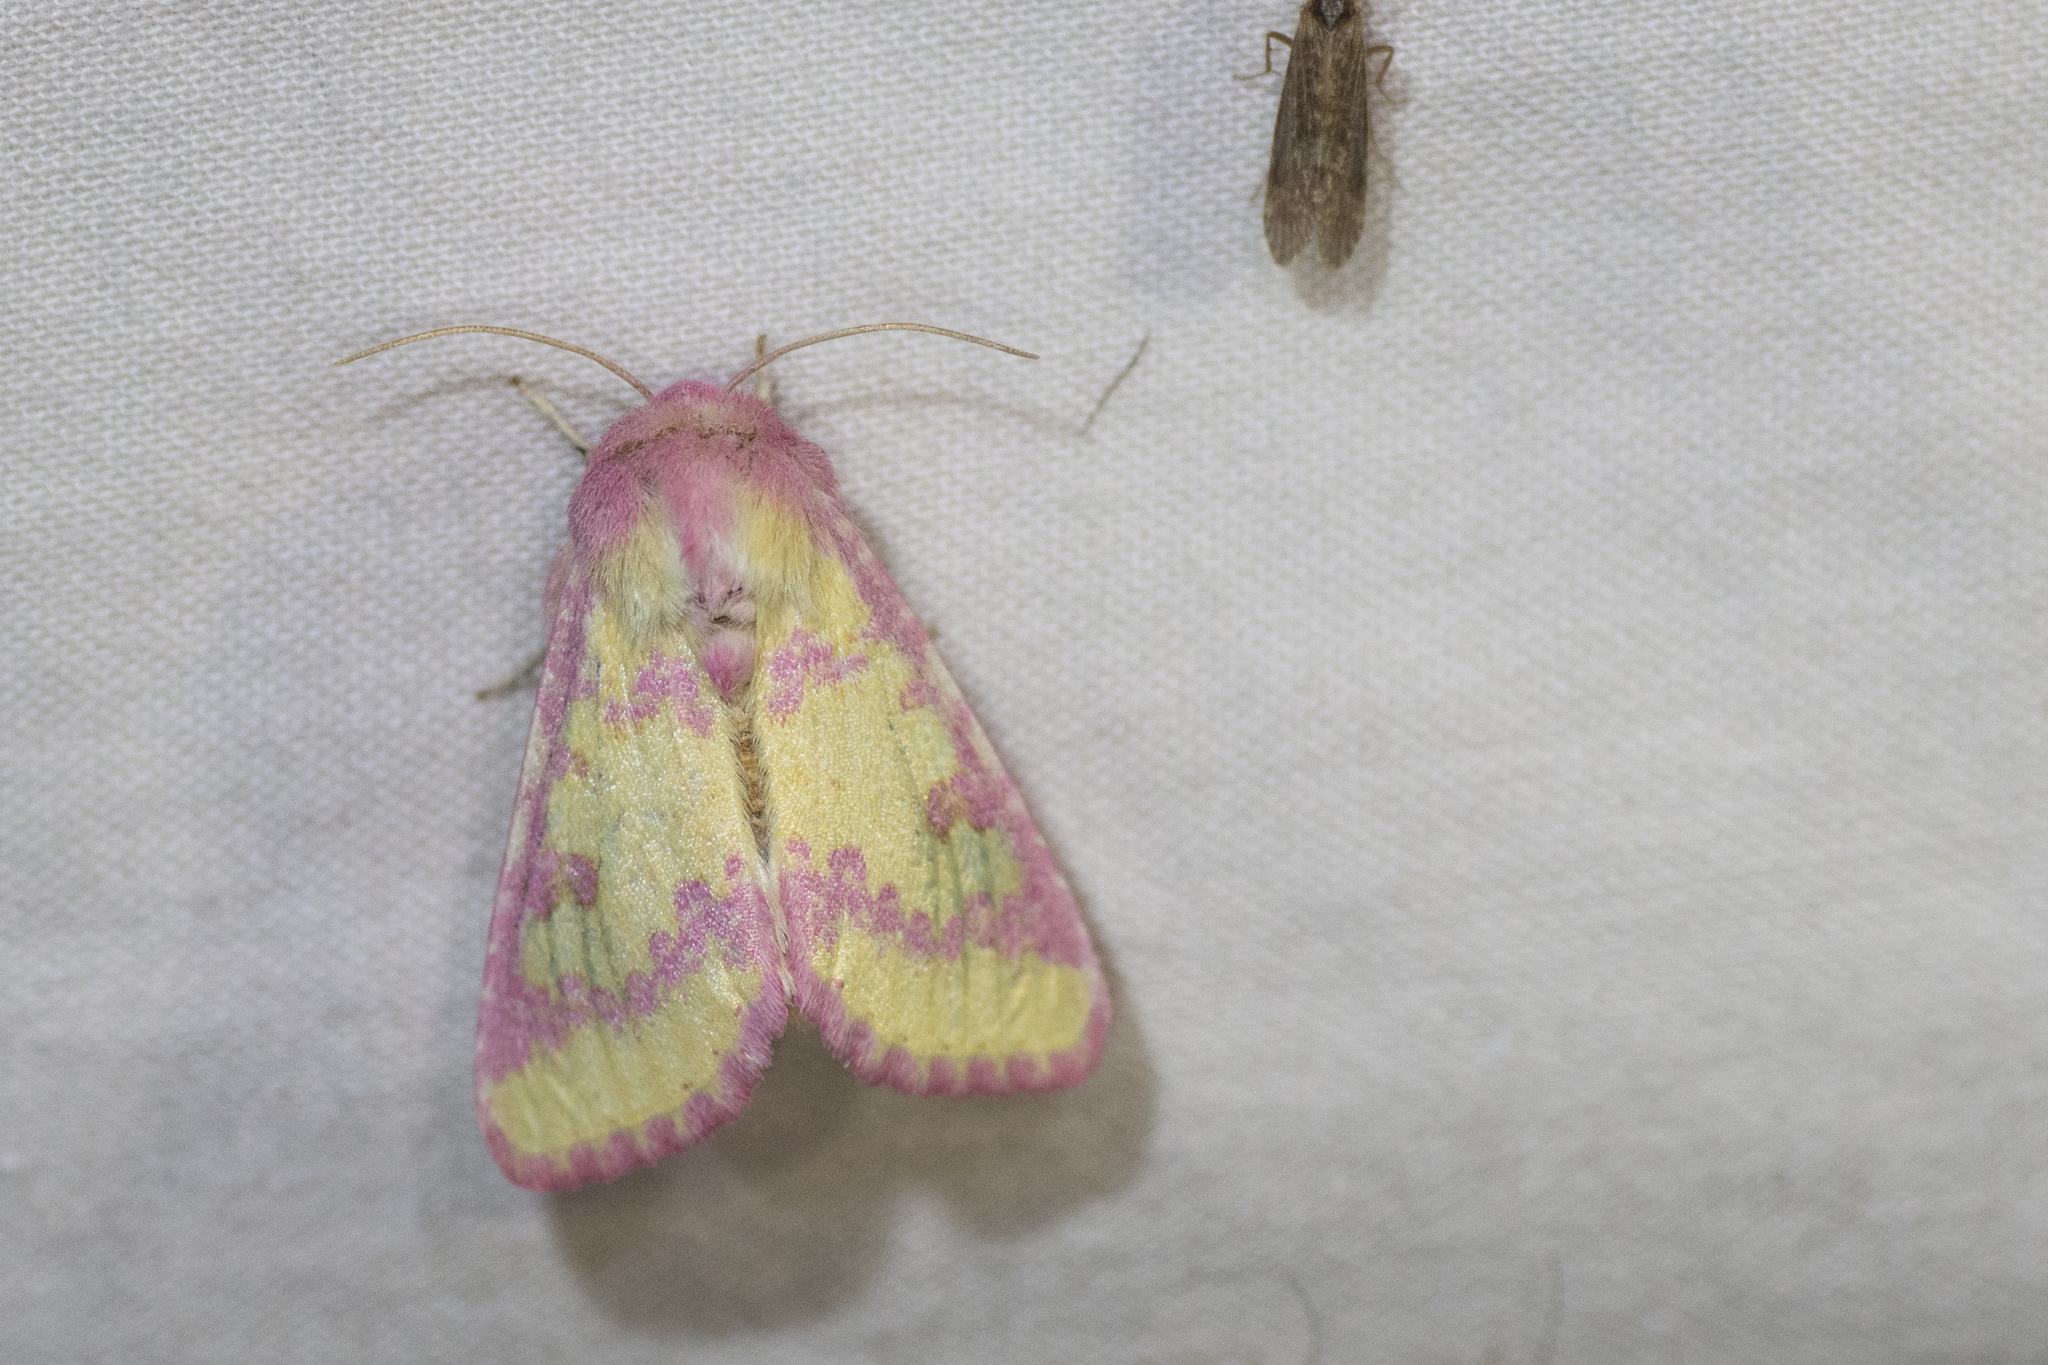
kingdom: Animalia
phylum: Arthropoda
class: Insecta
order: Lepidoptera
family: Noctuidae
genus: Psectrotarsia
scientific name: Psectrotarsia suavis
